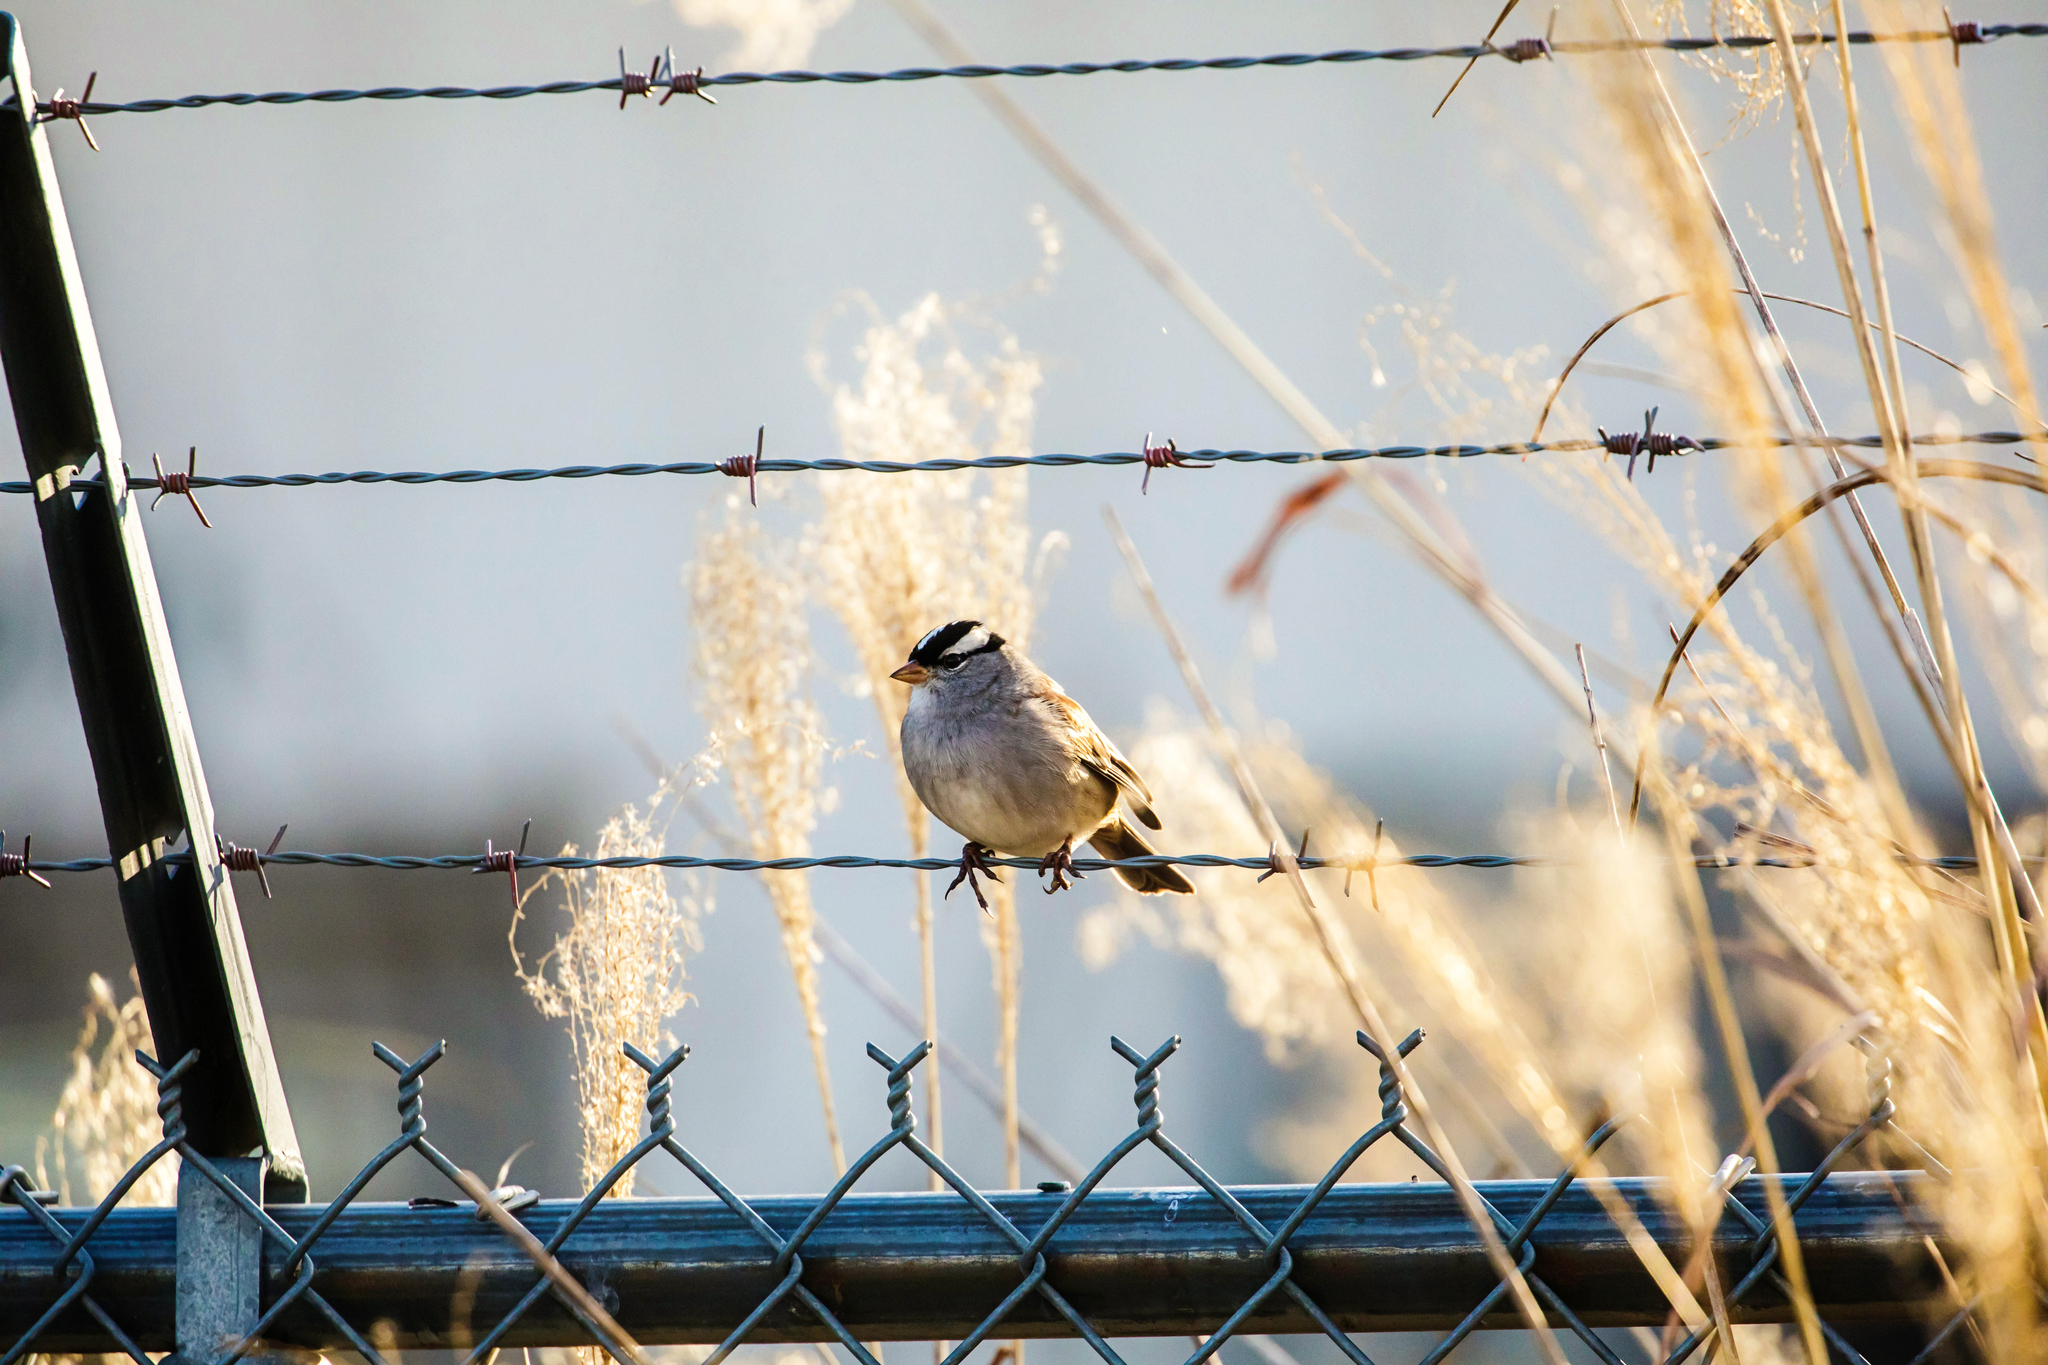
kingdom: Animalia
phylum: Chordata
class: Aves
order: Passeriformes
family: Passerellidae
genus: Zonotrichia
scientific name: Zonotrichia leucophrys
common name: White-crowned sparrow
